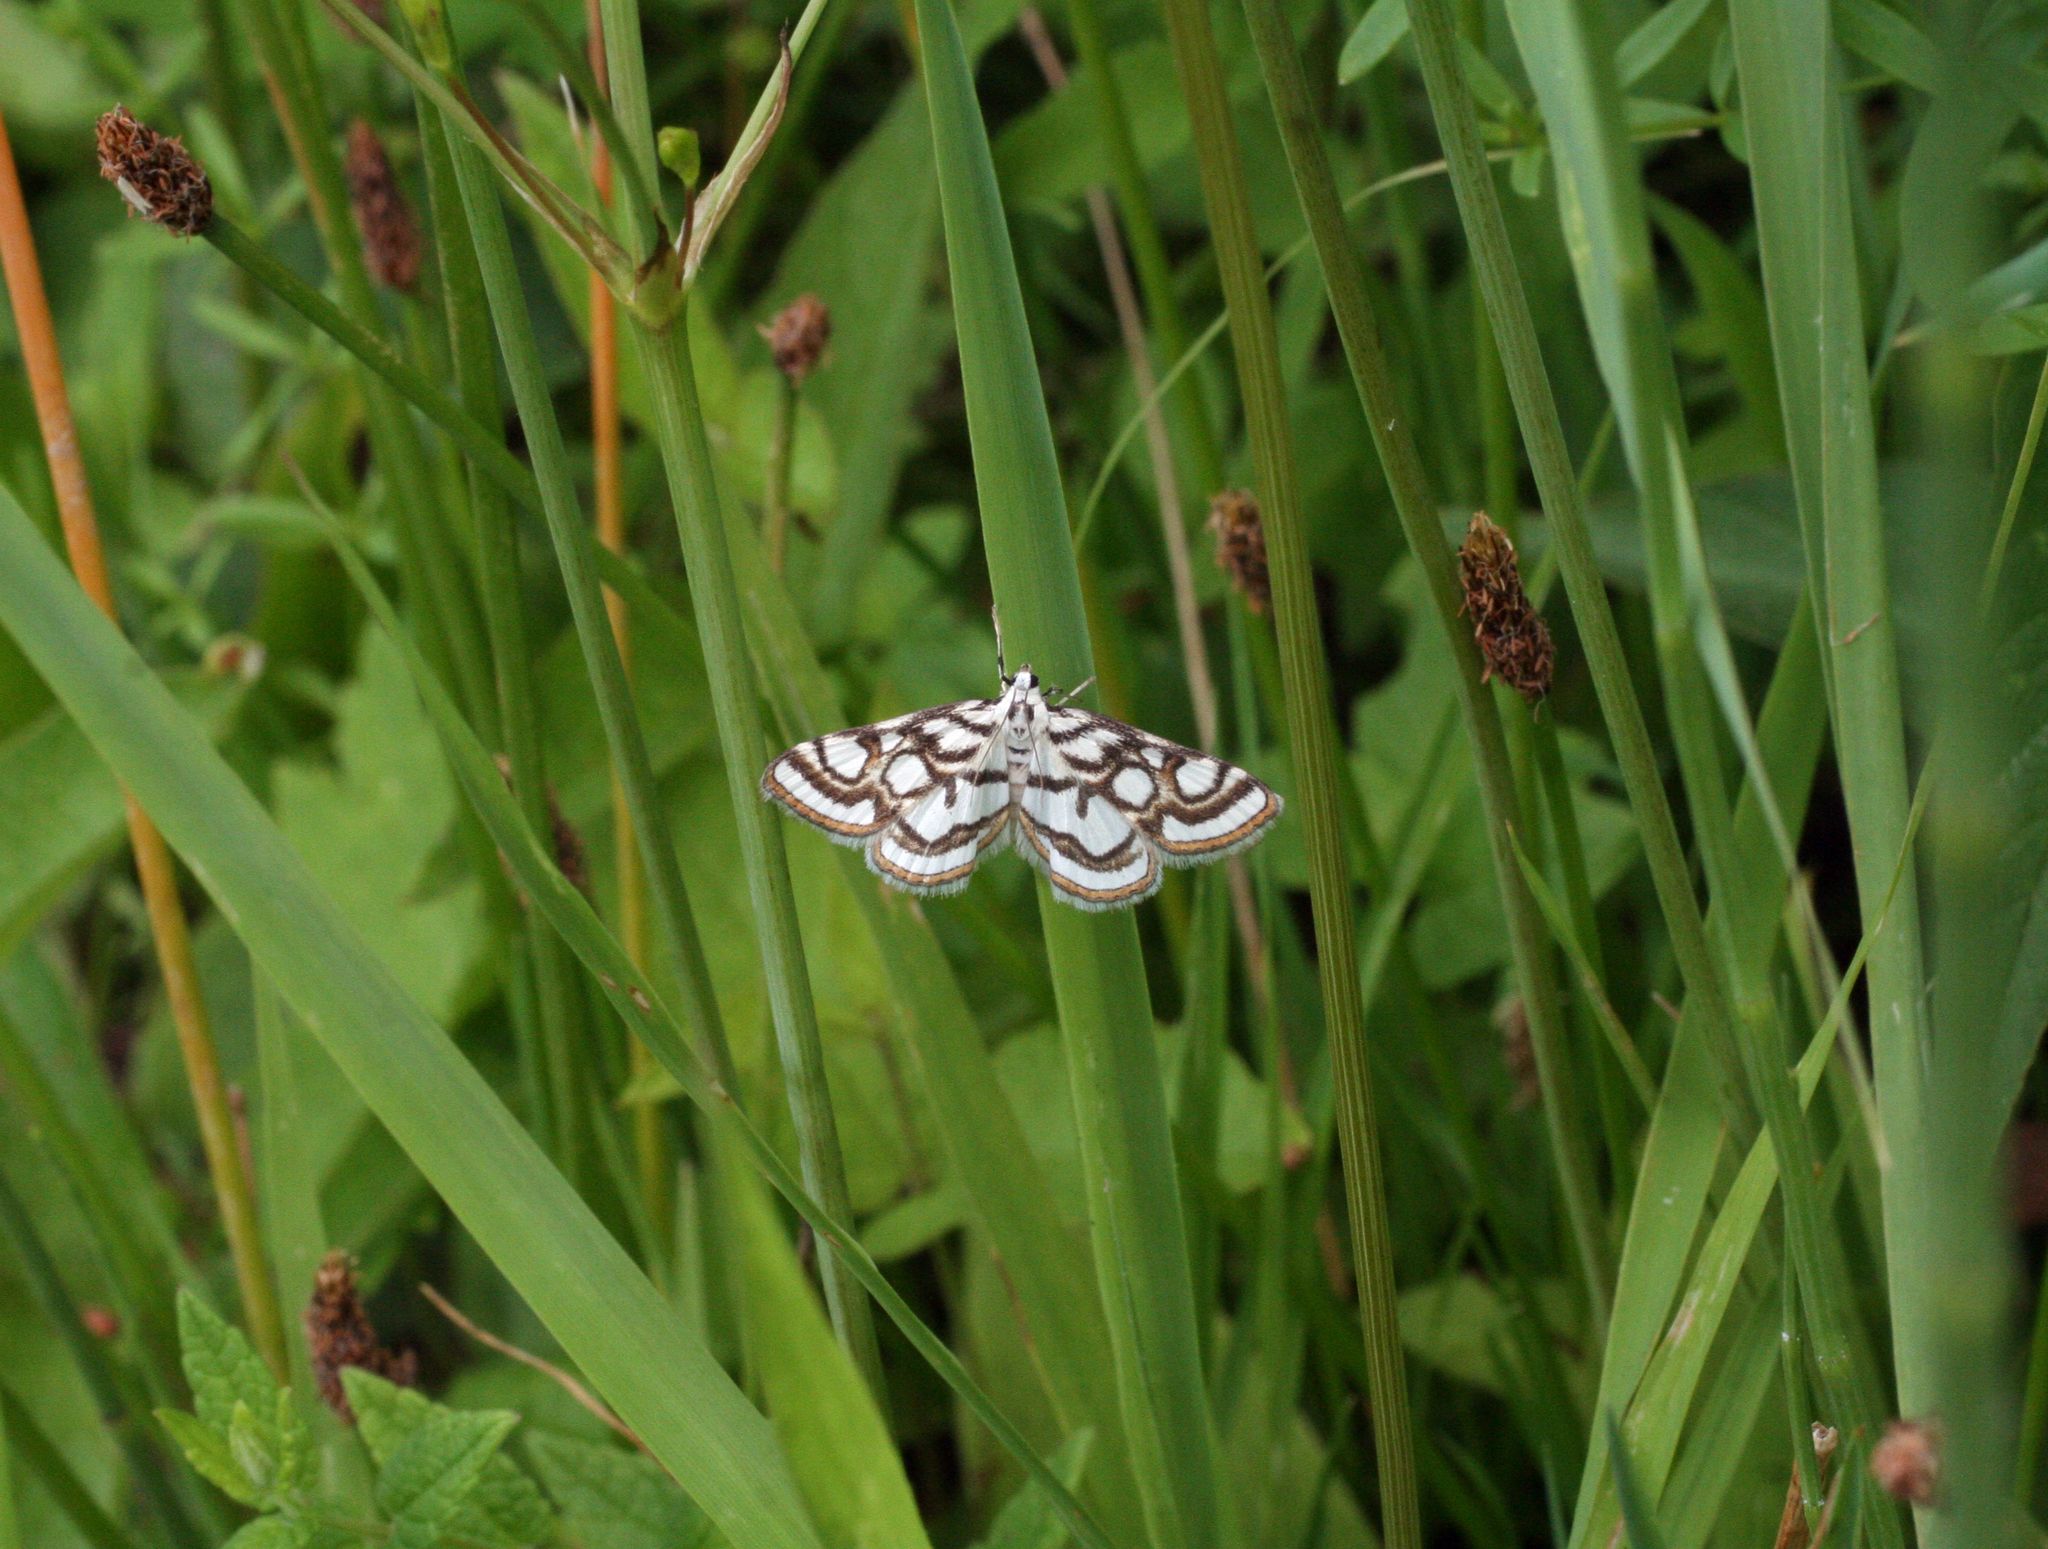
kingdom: Animalia
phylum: Arthropoda
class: Insecta
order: Lepidoptera
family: Crambidae
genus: Nymphula
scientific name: Nymphula nitidulata
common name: Beautiful china mark
